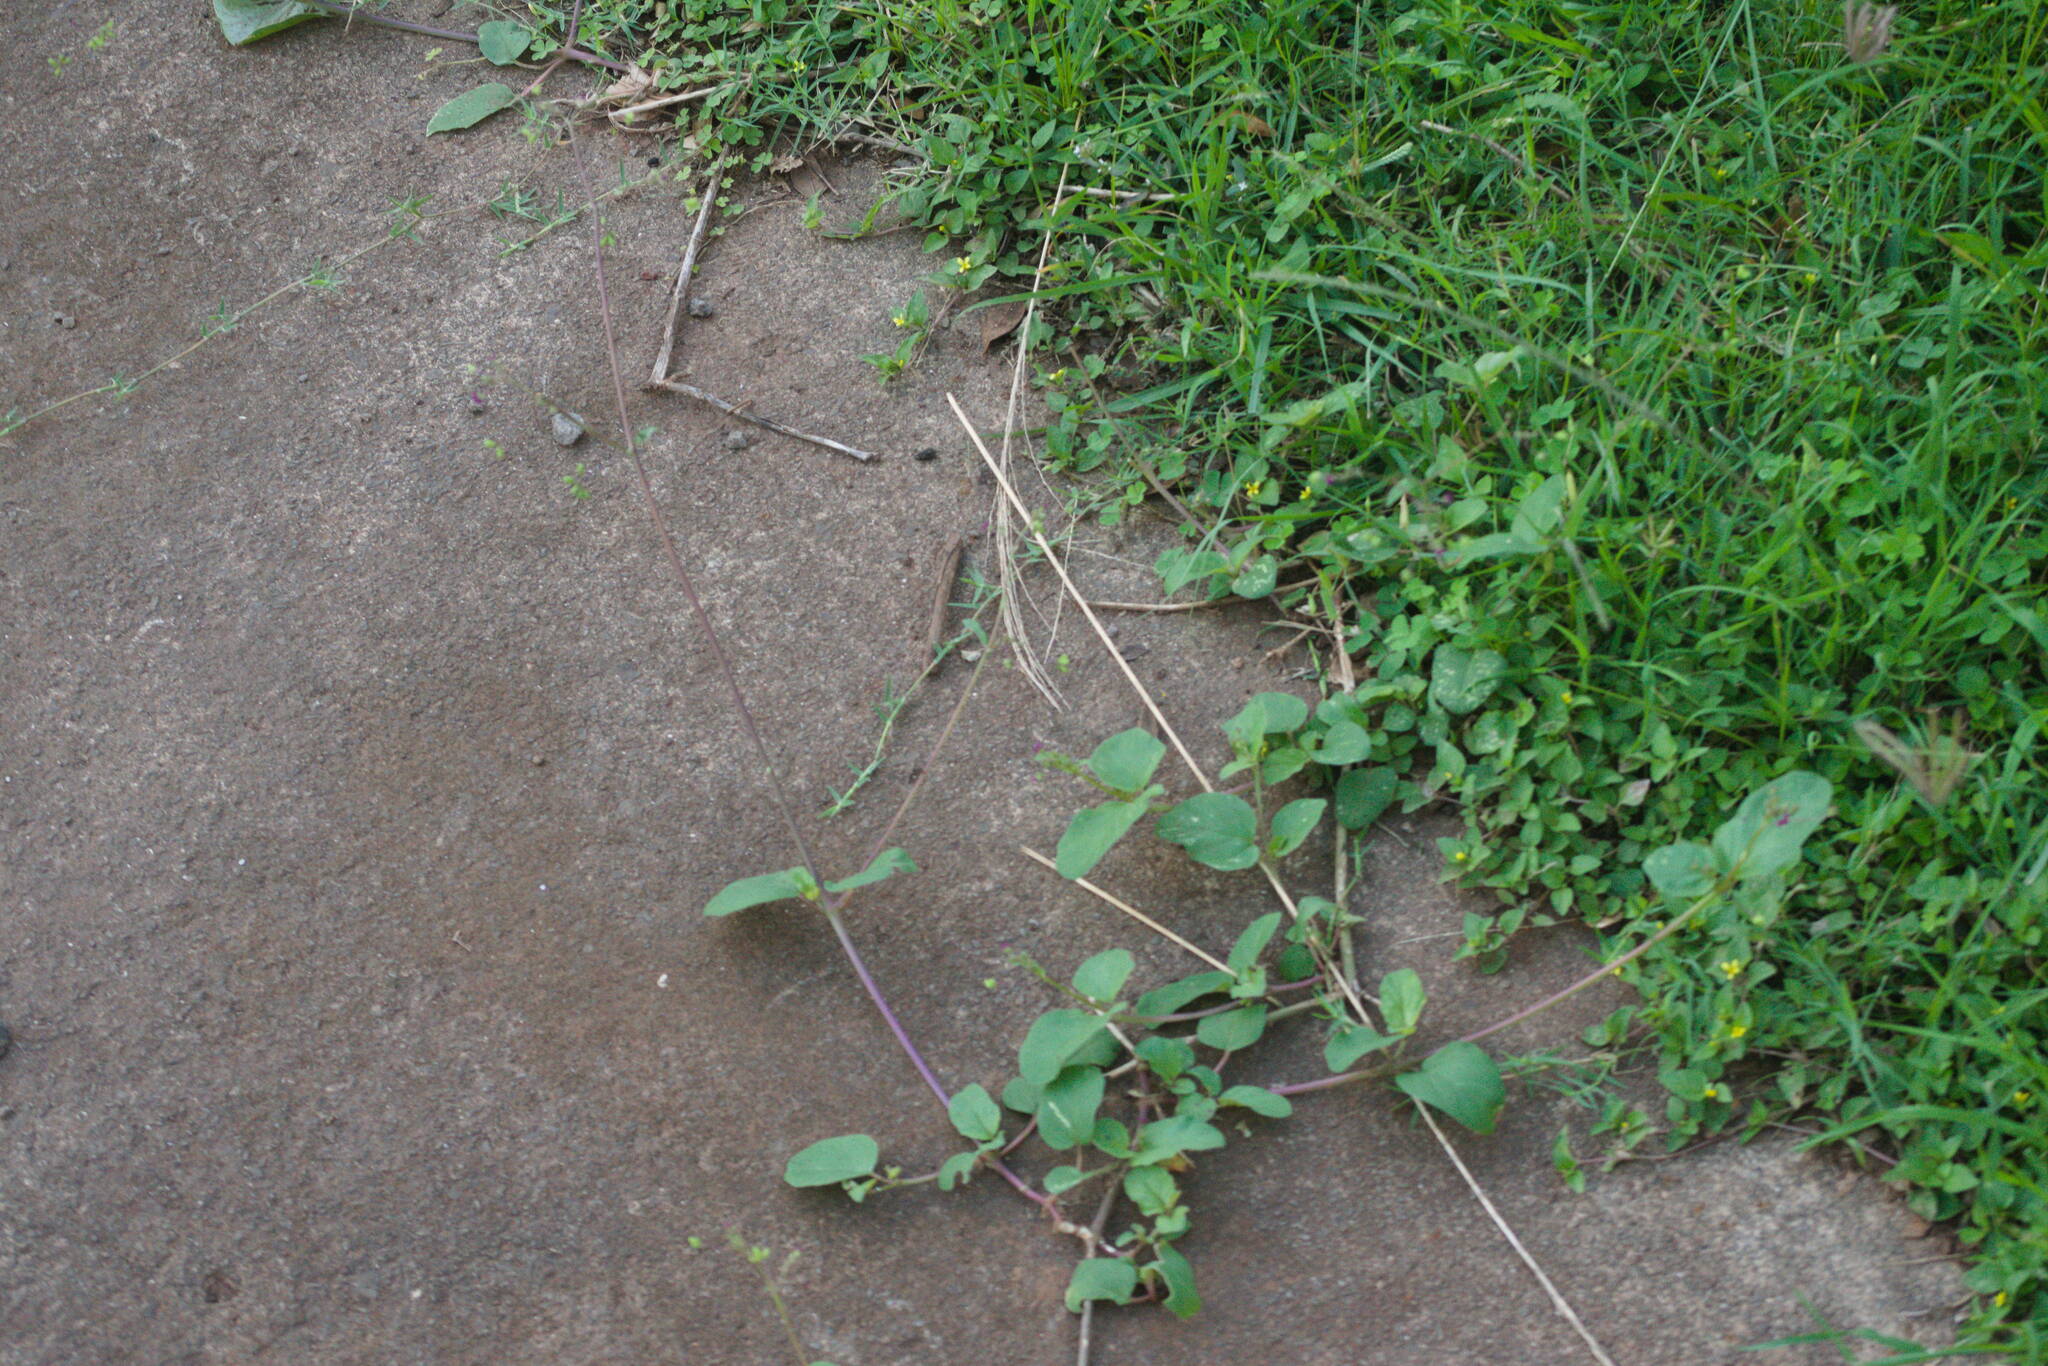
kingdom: Plantae
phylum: Tracheophyta
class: Magnoliopsida
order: Caryophyllales
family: Nyctaginaceae
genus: Boerhavia
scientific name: Boerhavia diffusa
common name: Red spiderling
